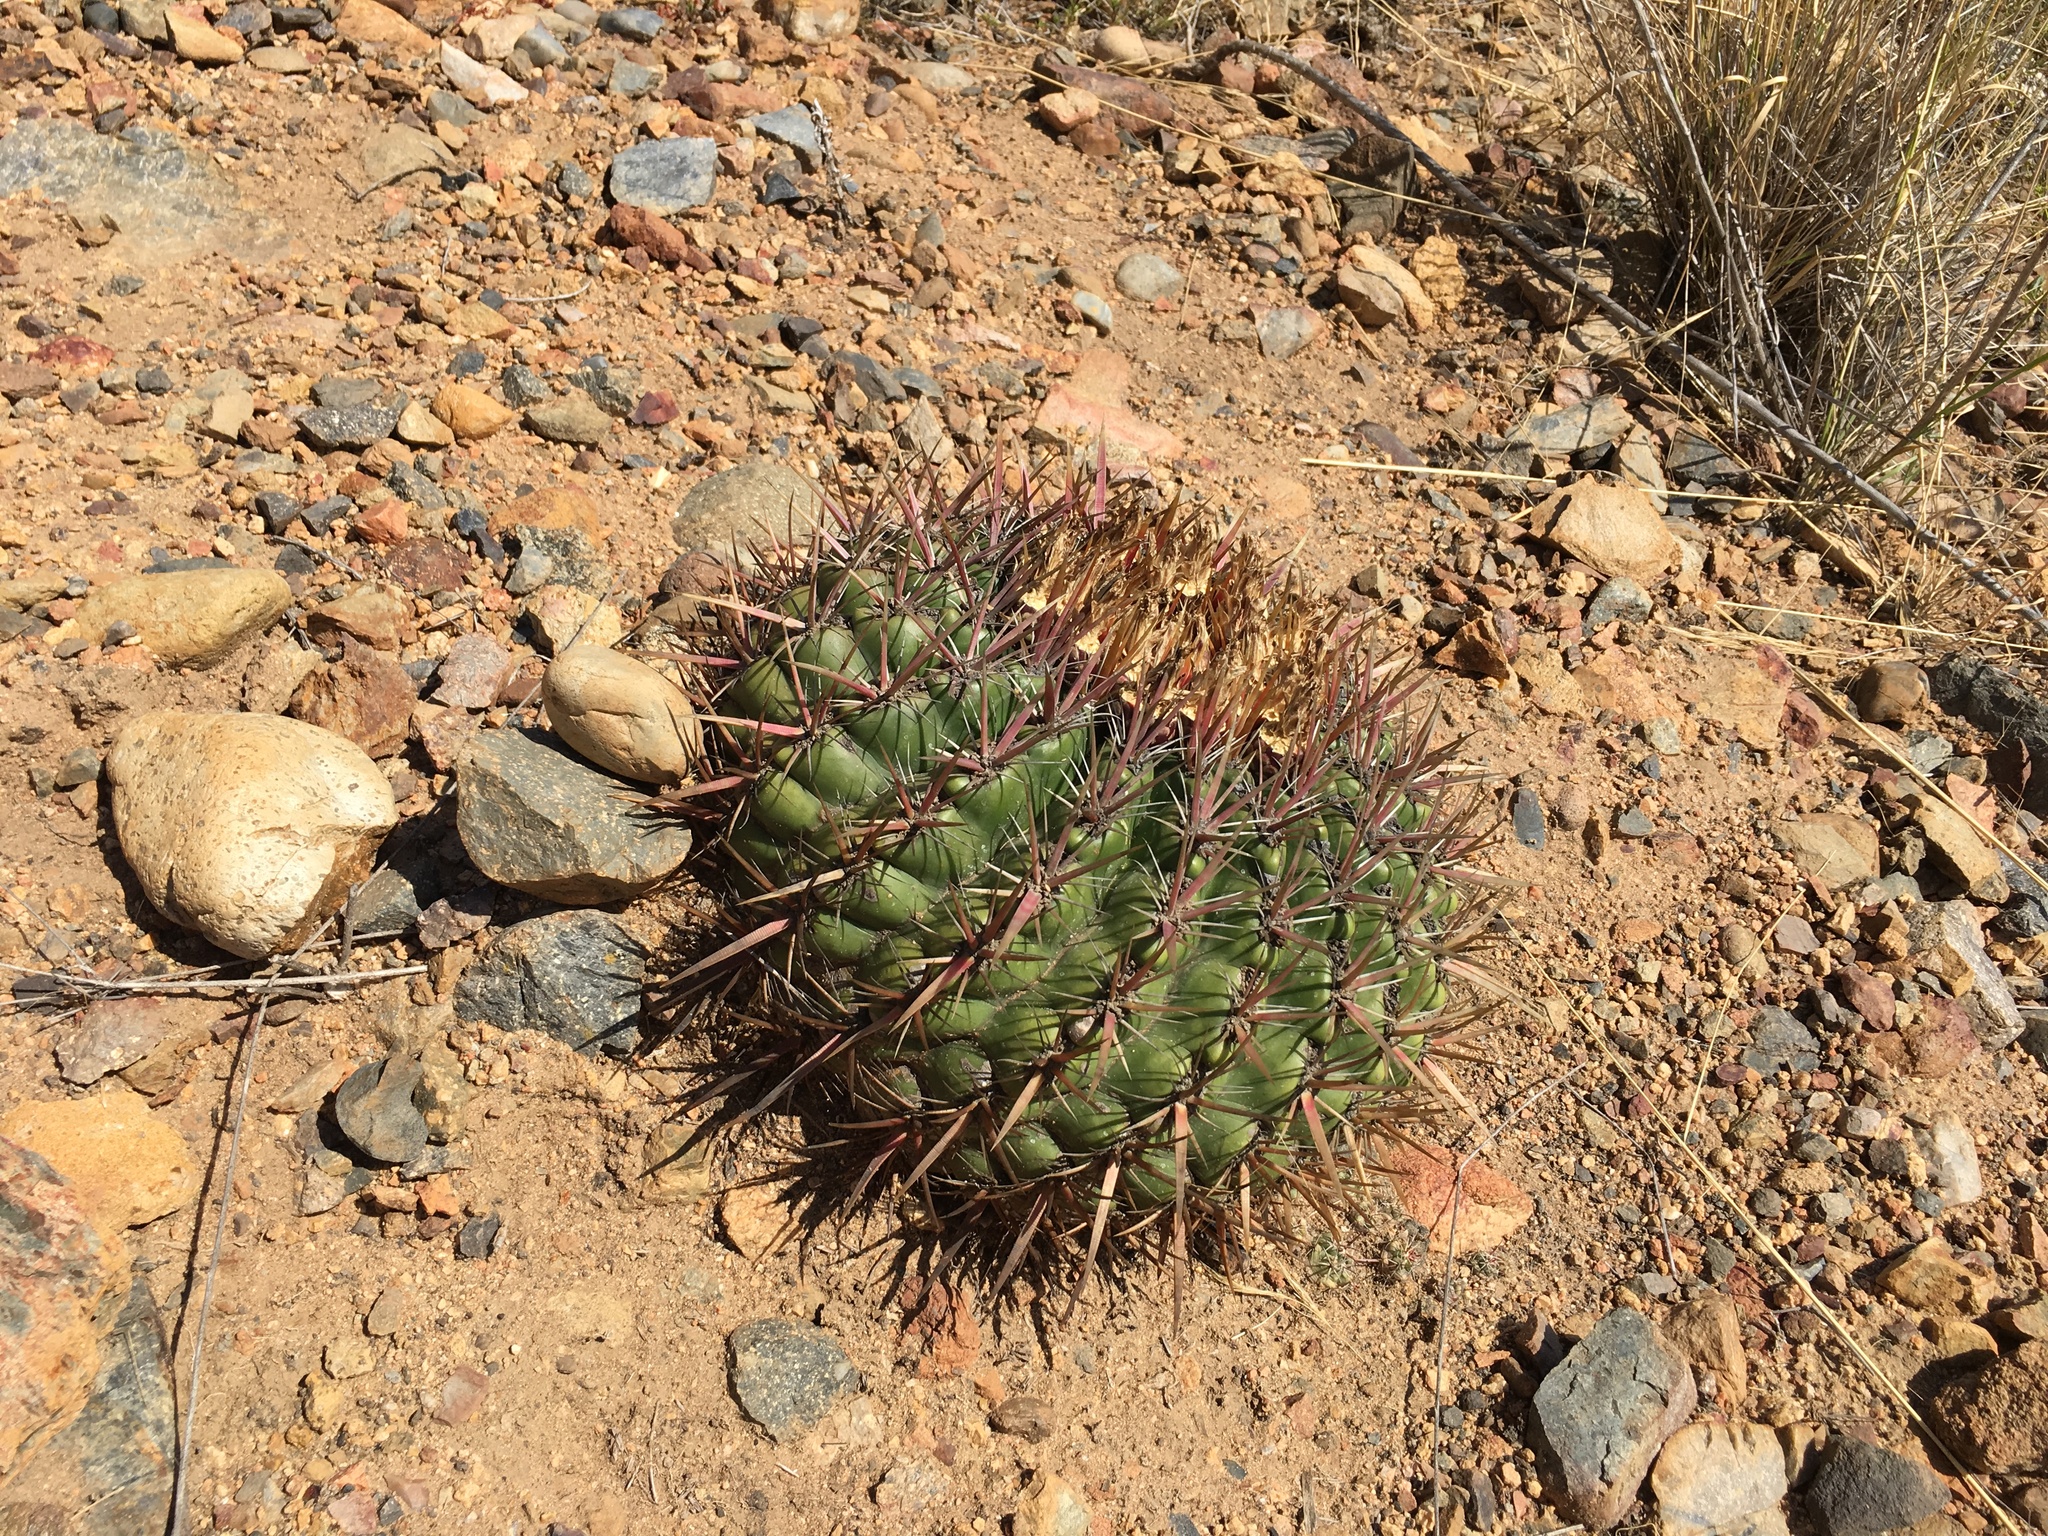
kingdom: Plantae
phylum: Tracheophyta
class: Magnoliopsida
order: Caryophyllales
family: Cactaceae
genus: Ferocactus
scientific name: Ferocactus viridescens
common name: San diego barrel cactus
